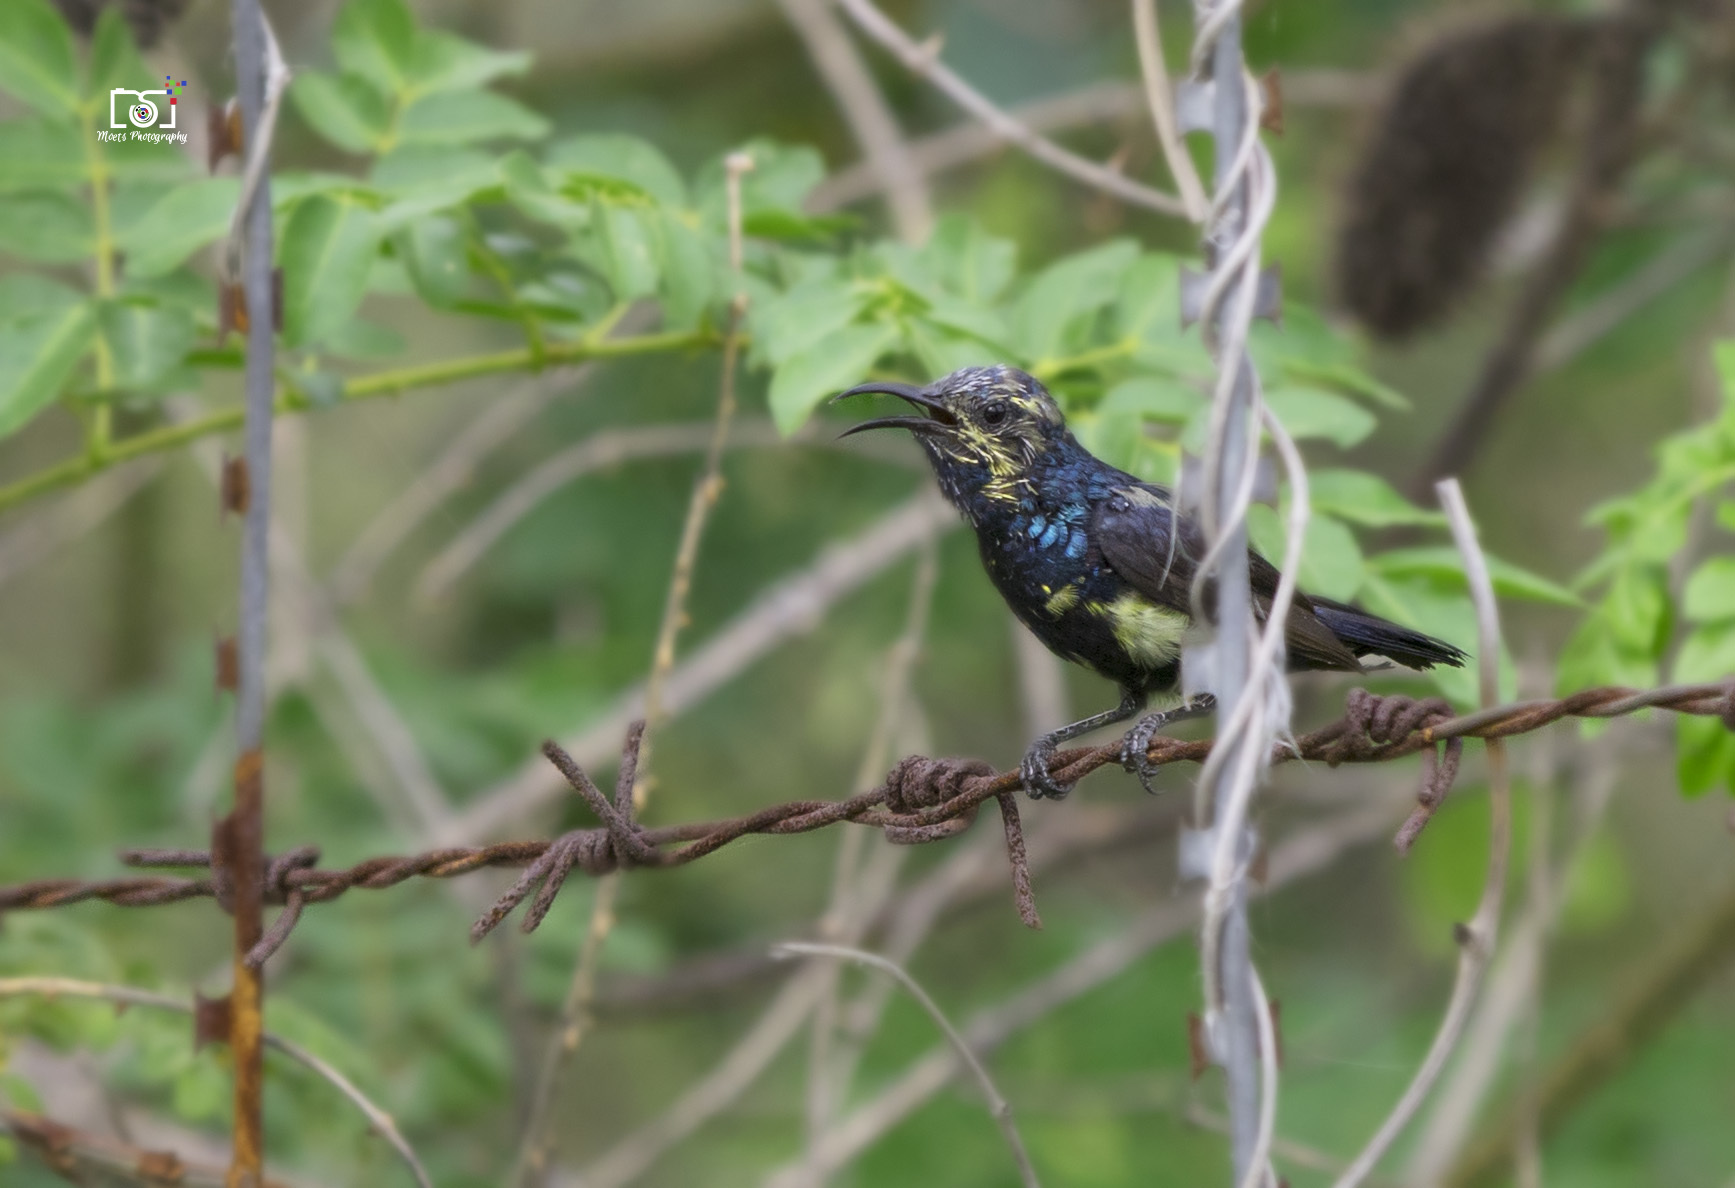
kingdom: Animalia
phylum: Chordata
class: Aves
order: Passeriformes
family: Nectariniidae
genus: Cinnyris
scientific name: Cinnyris asiaticus
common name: Purple sunbird
